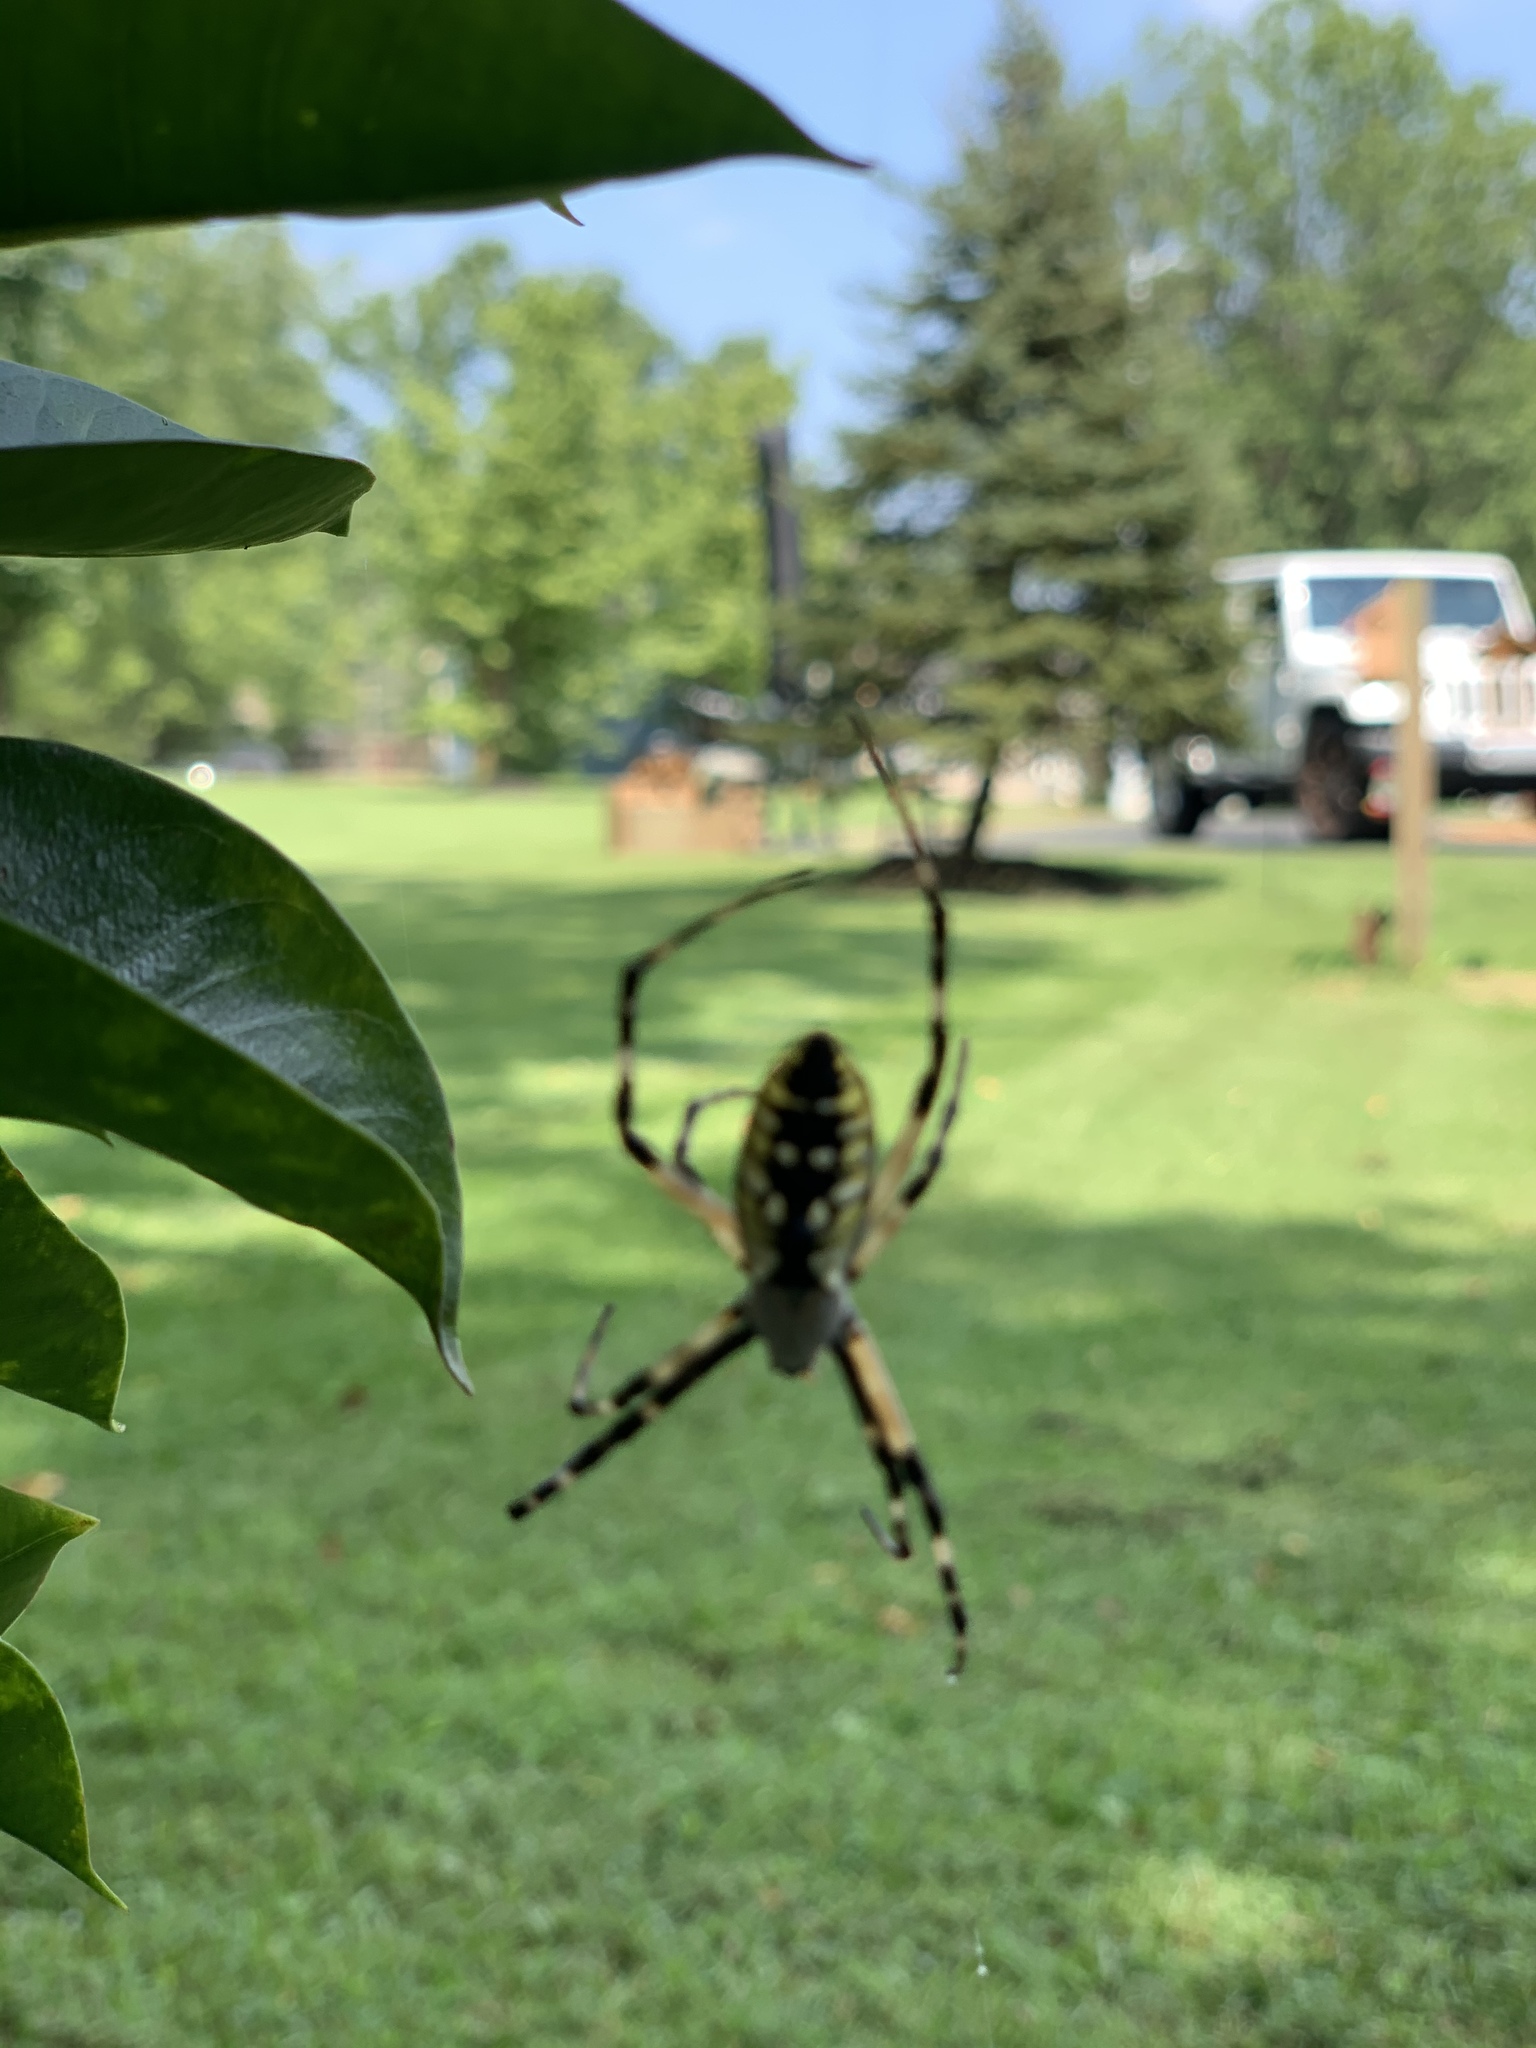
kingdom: Animalia
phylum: Arthropoda
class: Arachnida
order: Araneae
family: Araneidae
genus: Argiope
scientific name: Argiope aurantia
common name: Orb weavers
